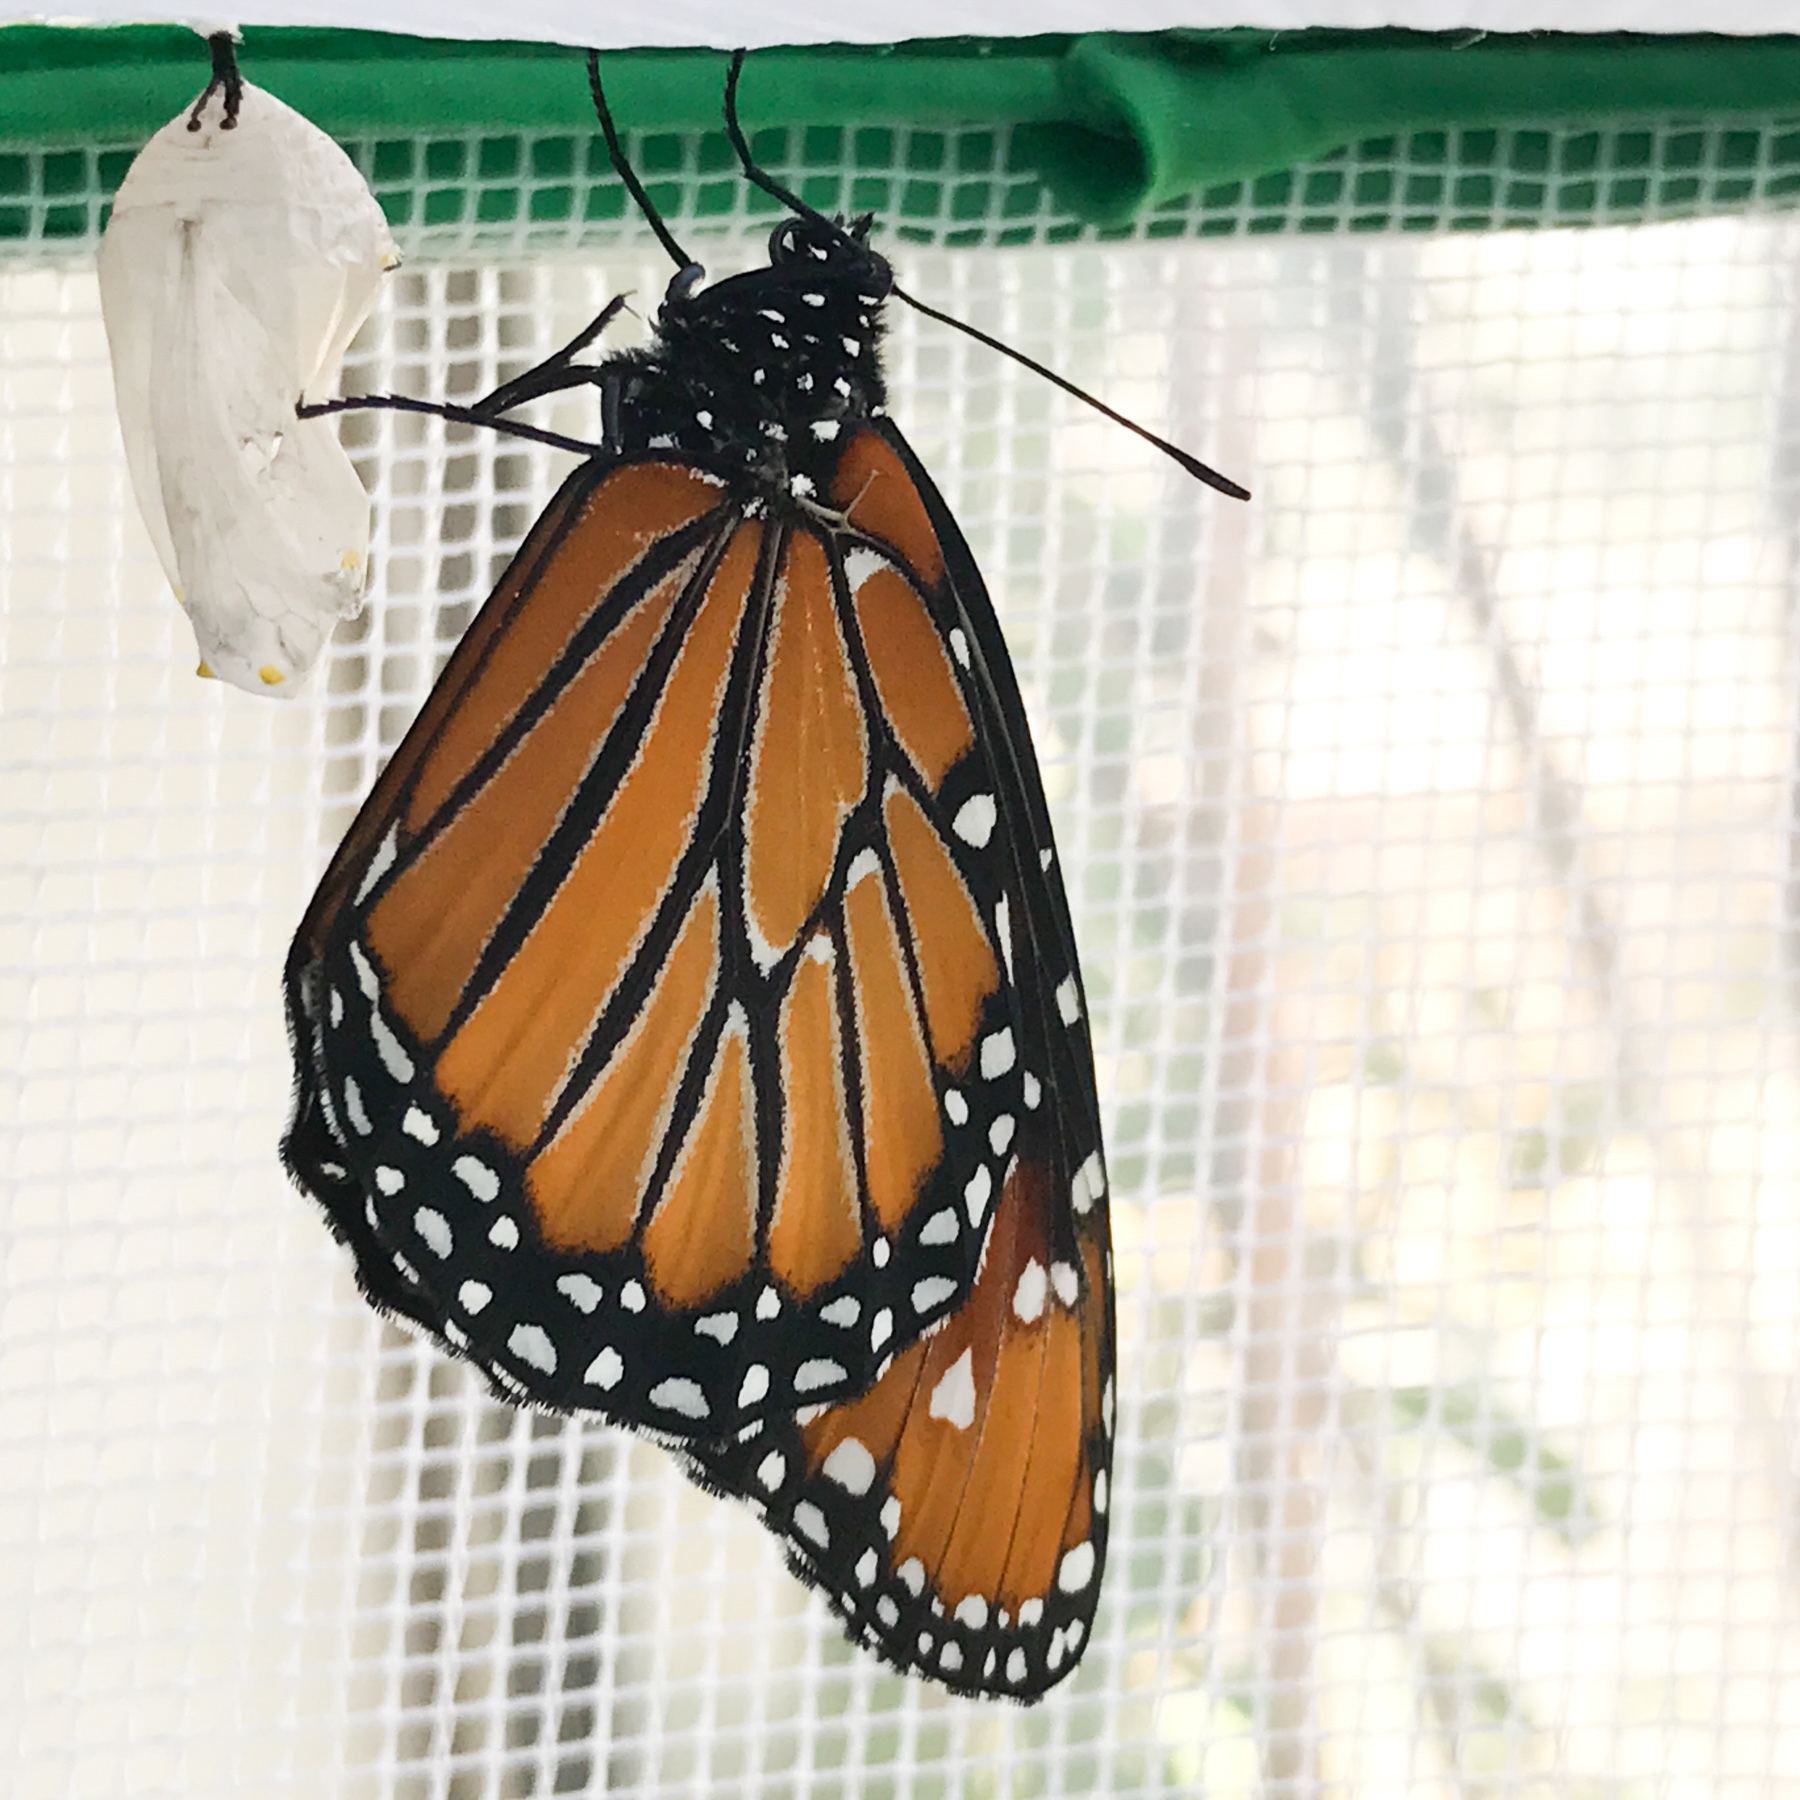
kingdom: Animalia
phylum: Arthropoda
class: Insecta
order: Lepidoptera
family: Nymphalidae
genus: Danaus
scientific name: Danaus gilippus
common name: Queen
